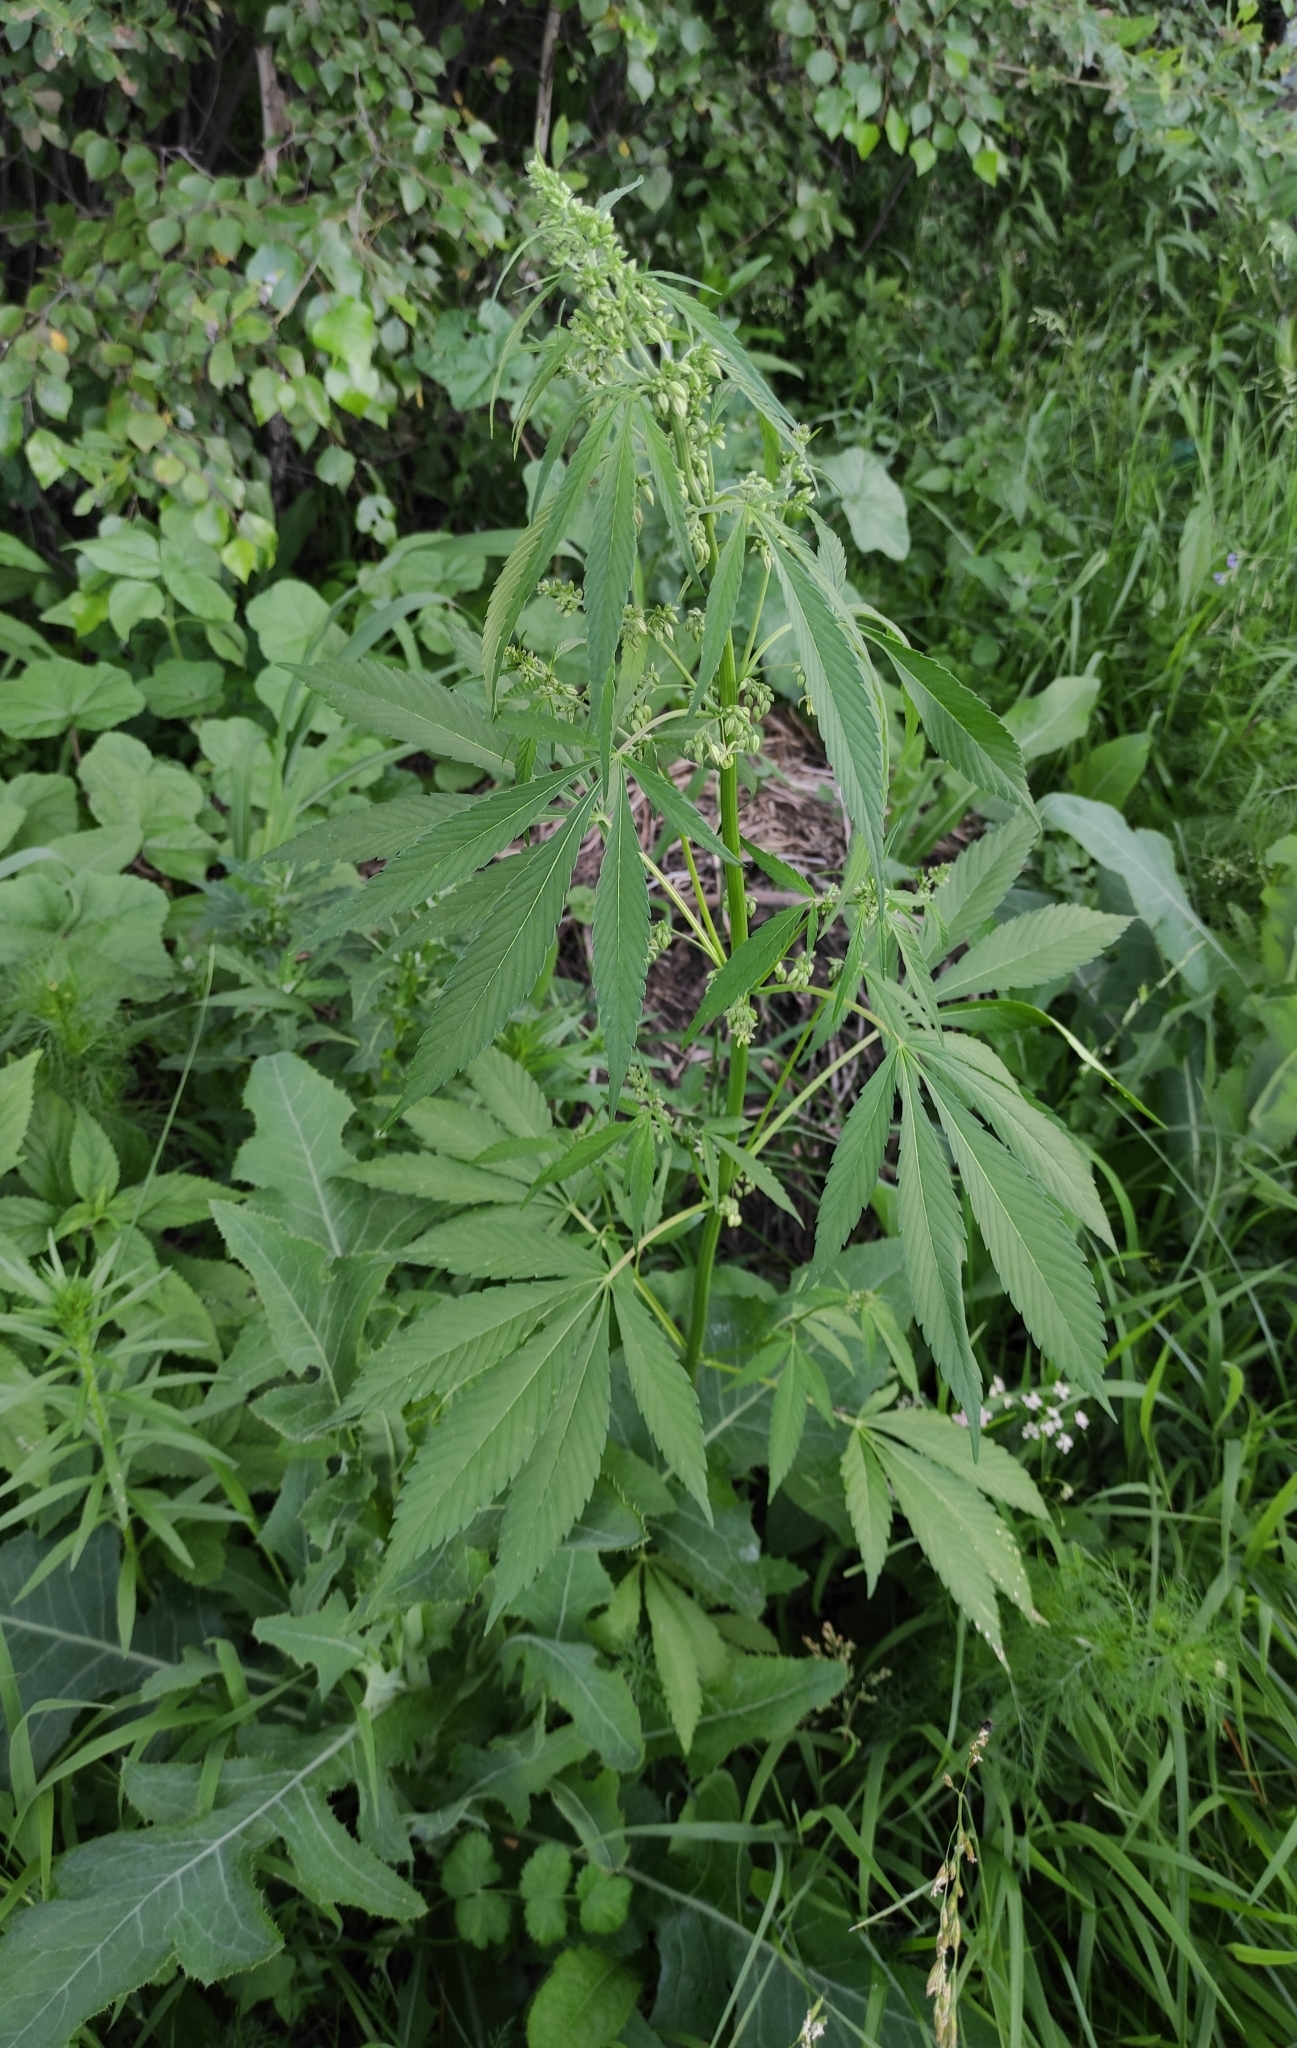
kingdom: Plantae
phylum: Tracheophyta
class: Magnoliopsida
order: Rosales
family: Cannabaceae
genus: Cannabis
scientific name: Cannabis sativa
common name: Hemp
